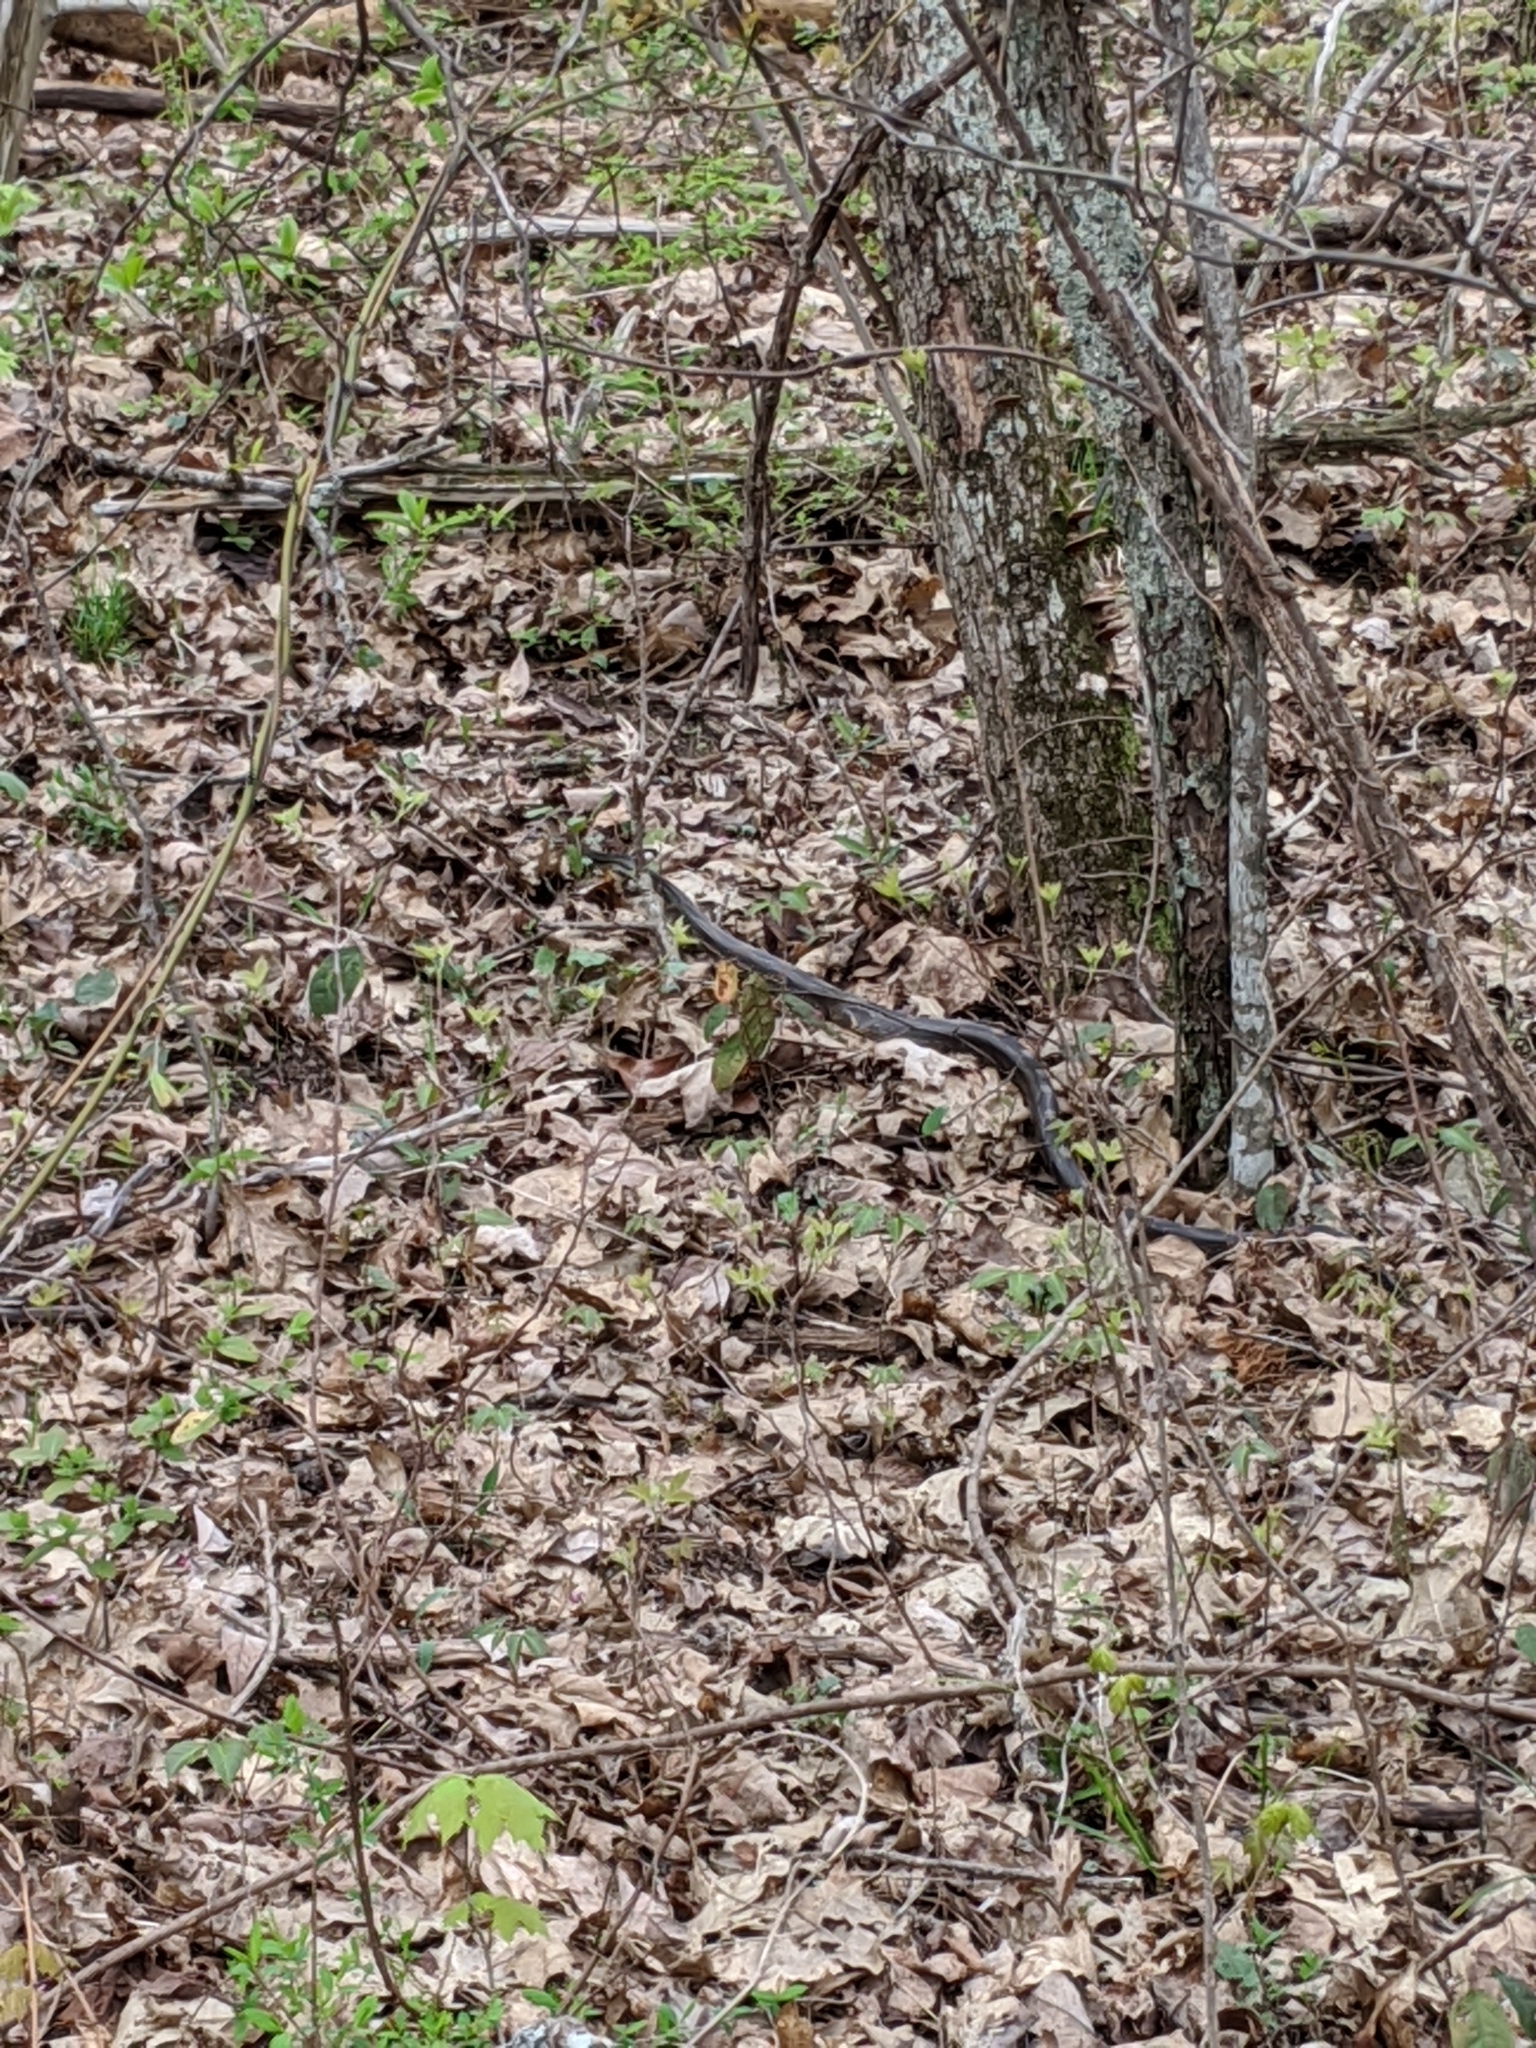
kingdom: Animalia
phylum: Chordata
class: Squamata
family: Colubridae
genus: Pantherophis
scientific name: Pantherophis spiloides
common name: Gray rat snake
